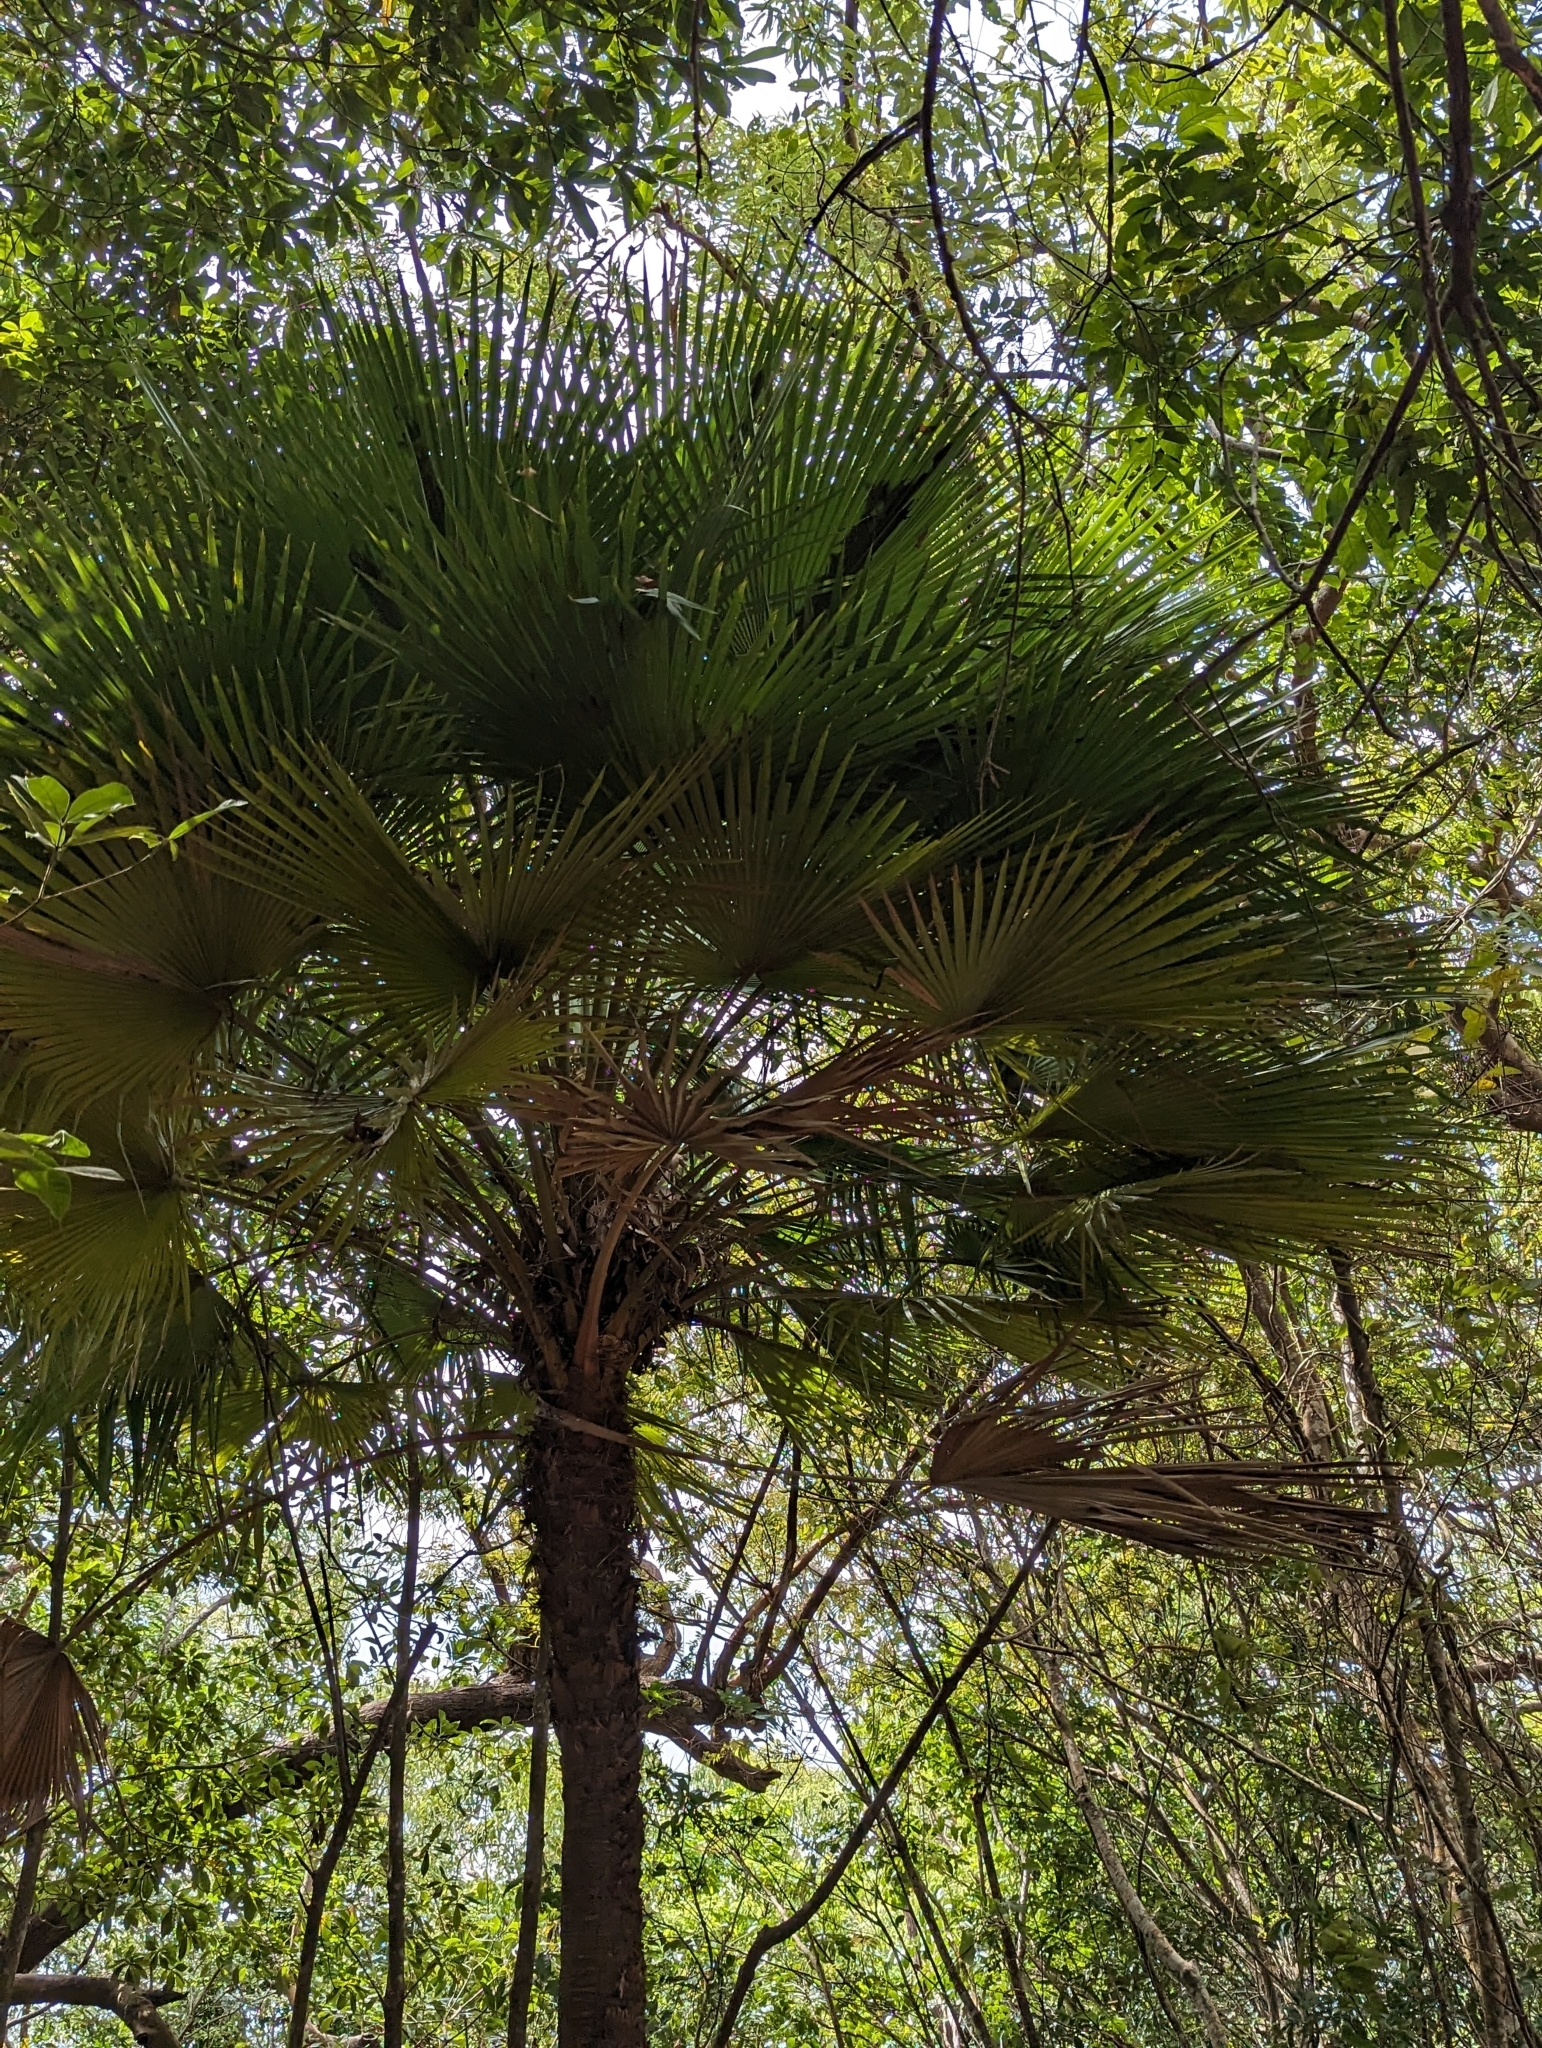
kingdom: Plantae
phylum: Tracheophyta
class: Liliopsida
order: Arecales
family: Arecaceae
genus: Livistona
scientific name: Livistona muelleri
